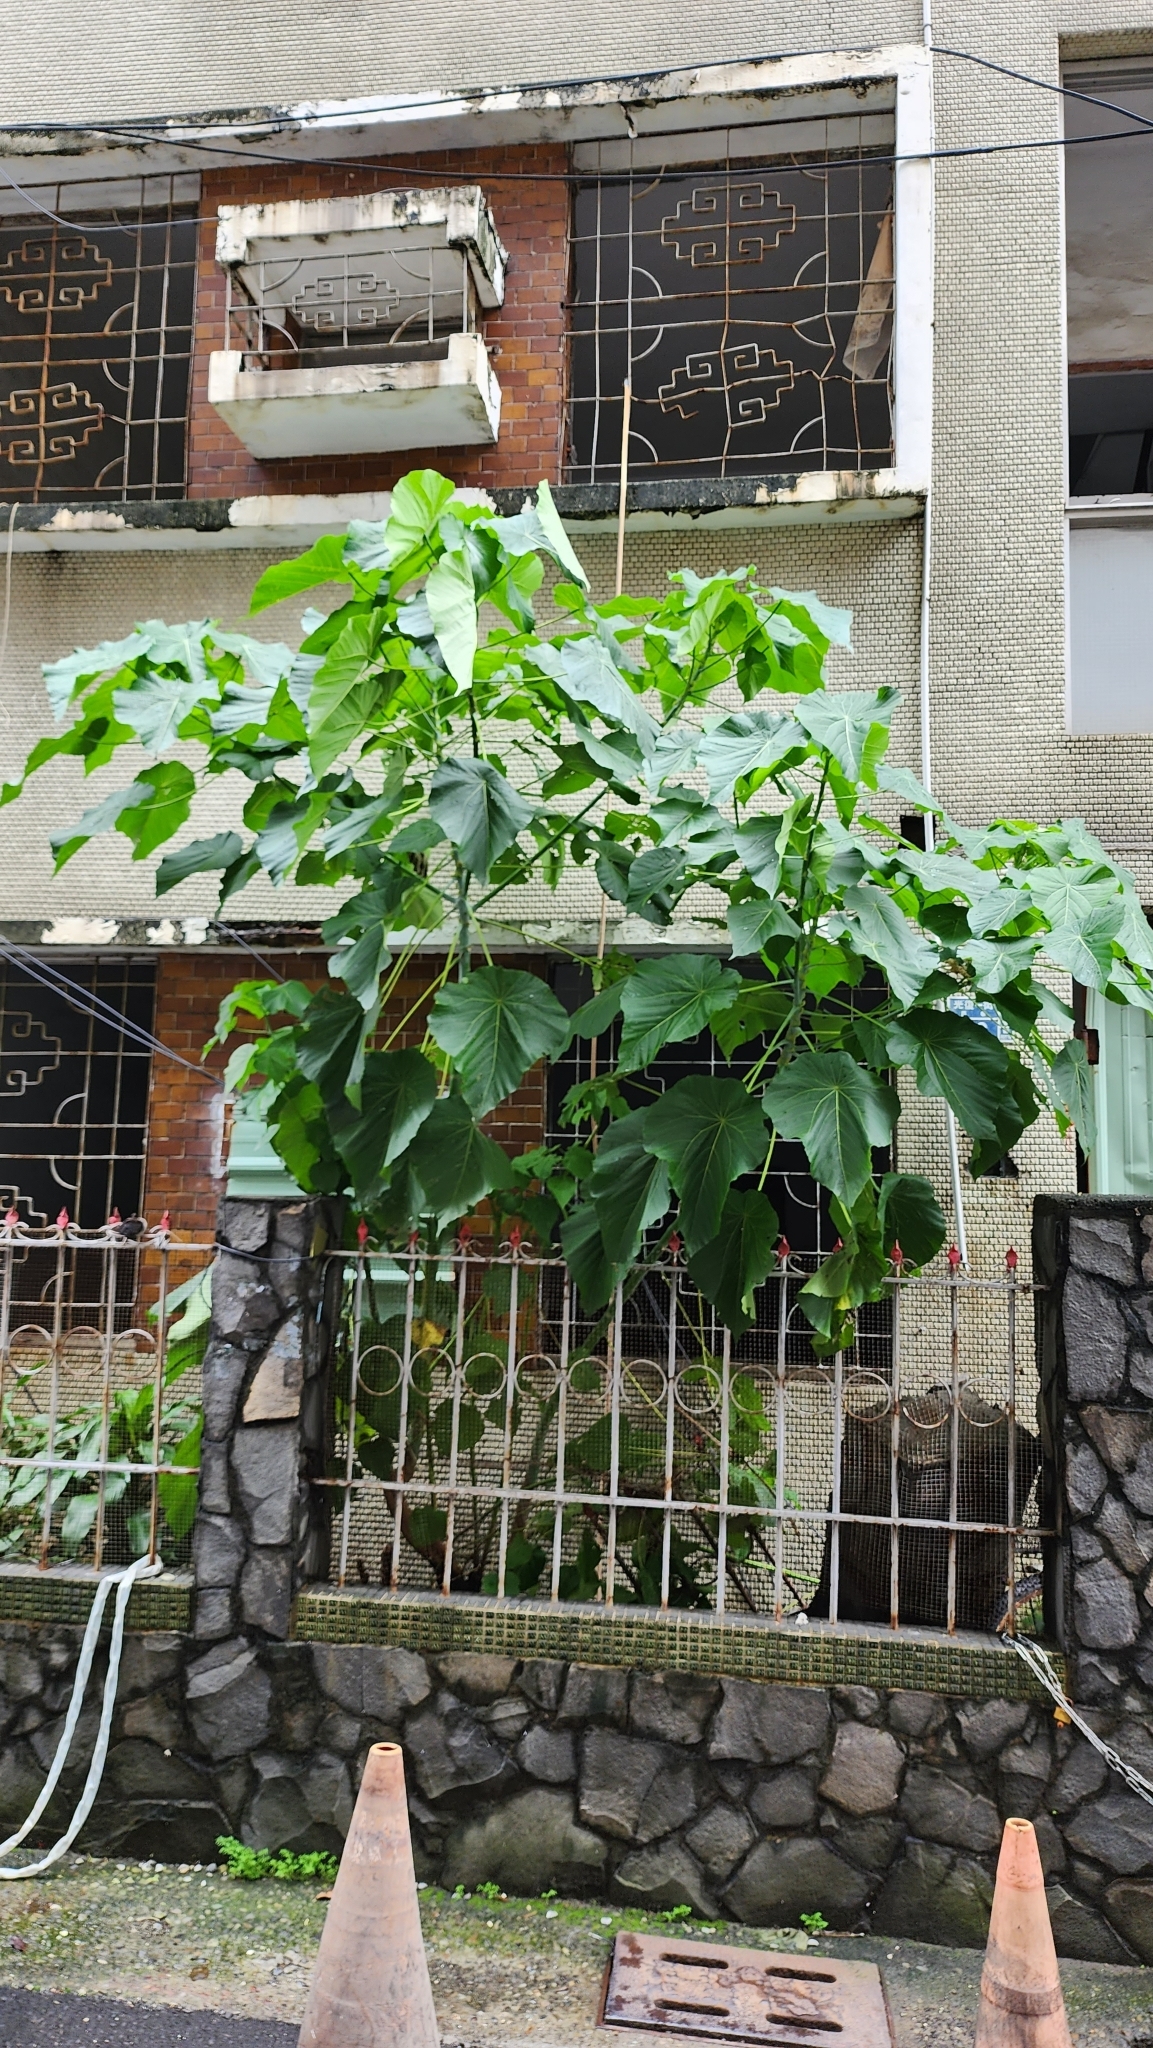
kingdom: Plantae
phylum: Tracheophyta
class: Magnoliopsida
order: Malpighiales
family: Euphorbiaceae
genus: Macaranga
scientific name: Macaranga tanarius
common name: Parasol leaf tree
